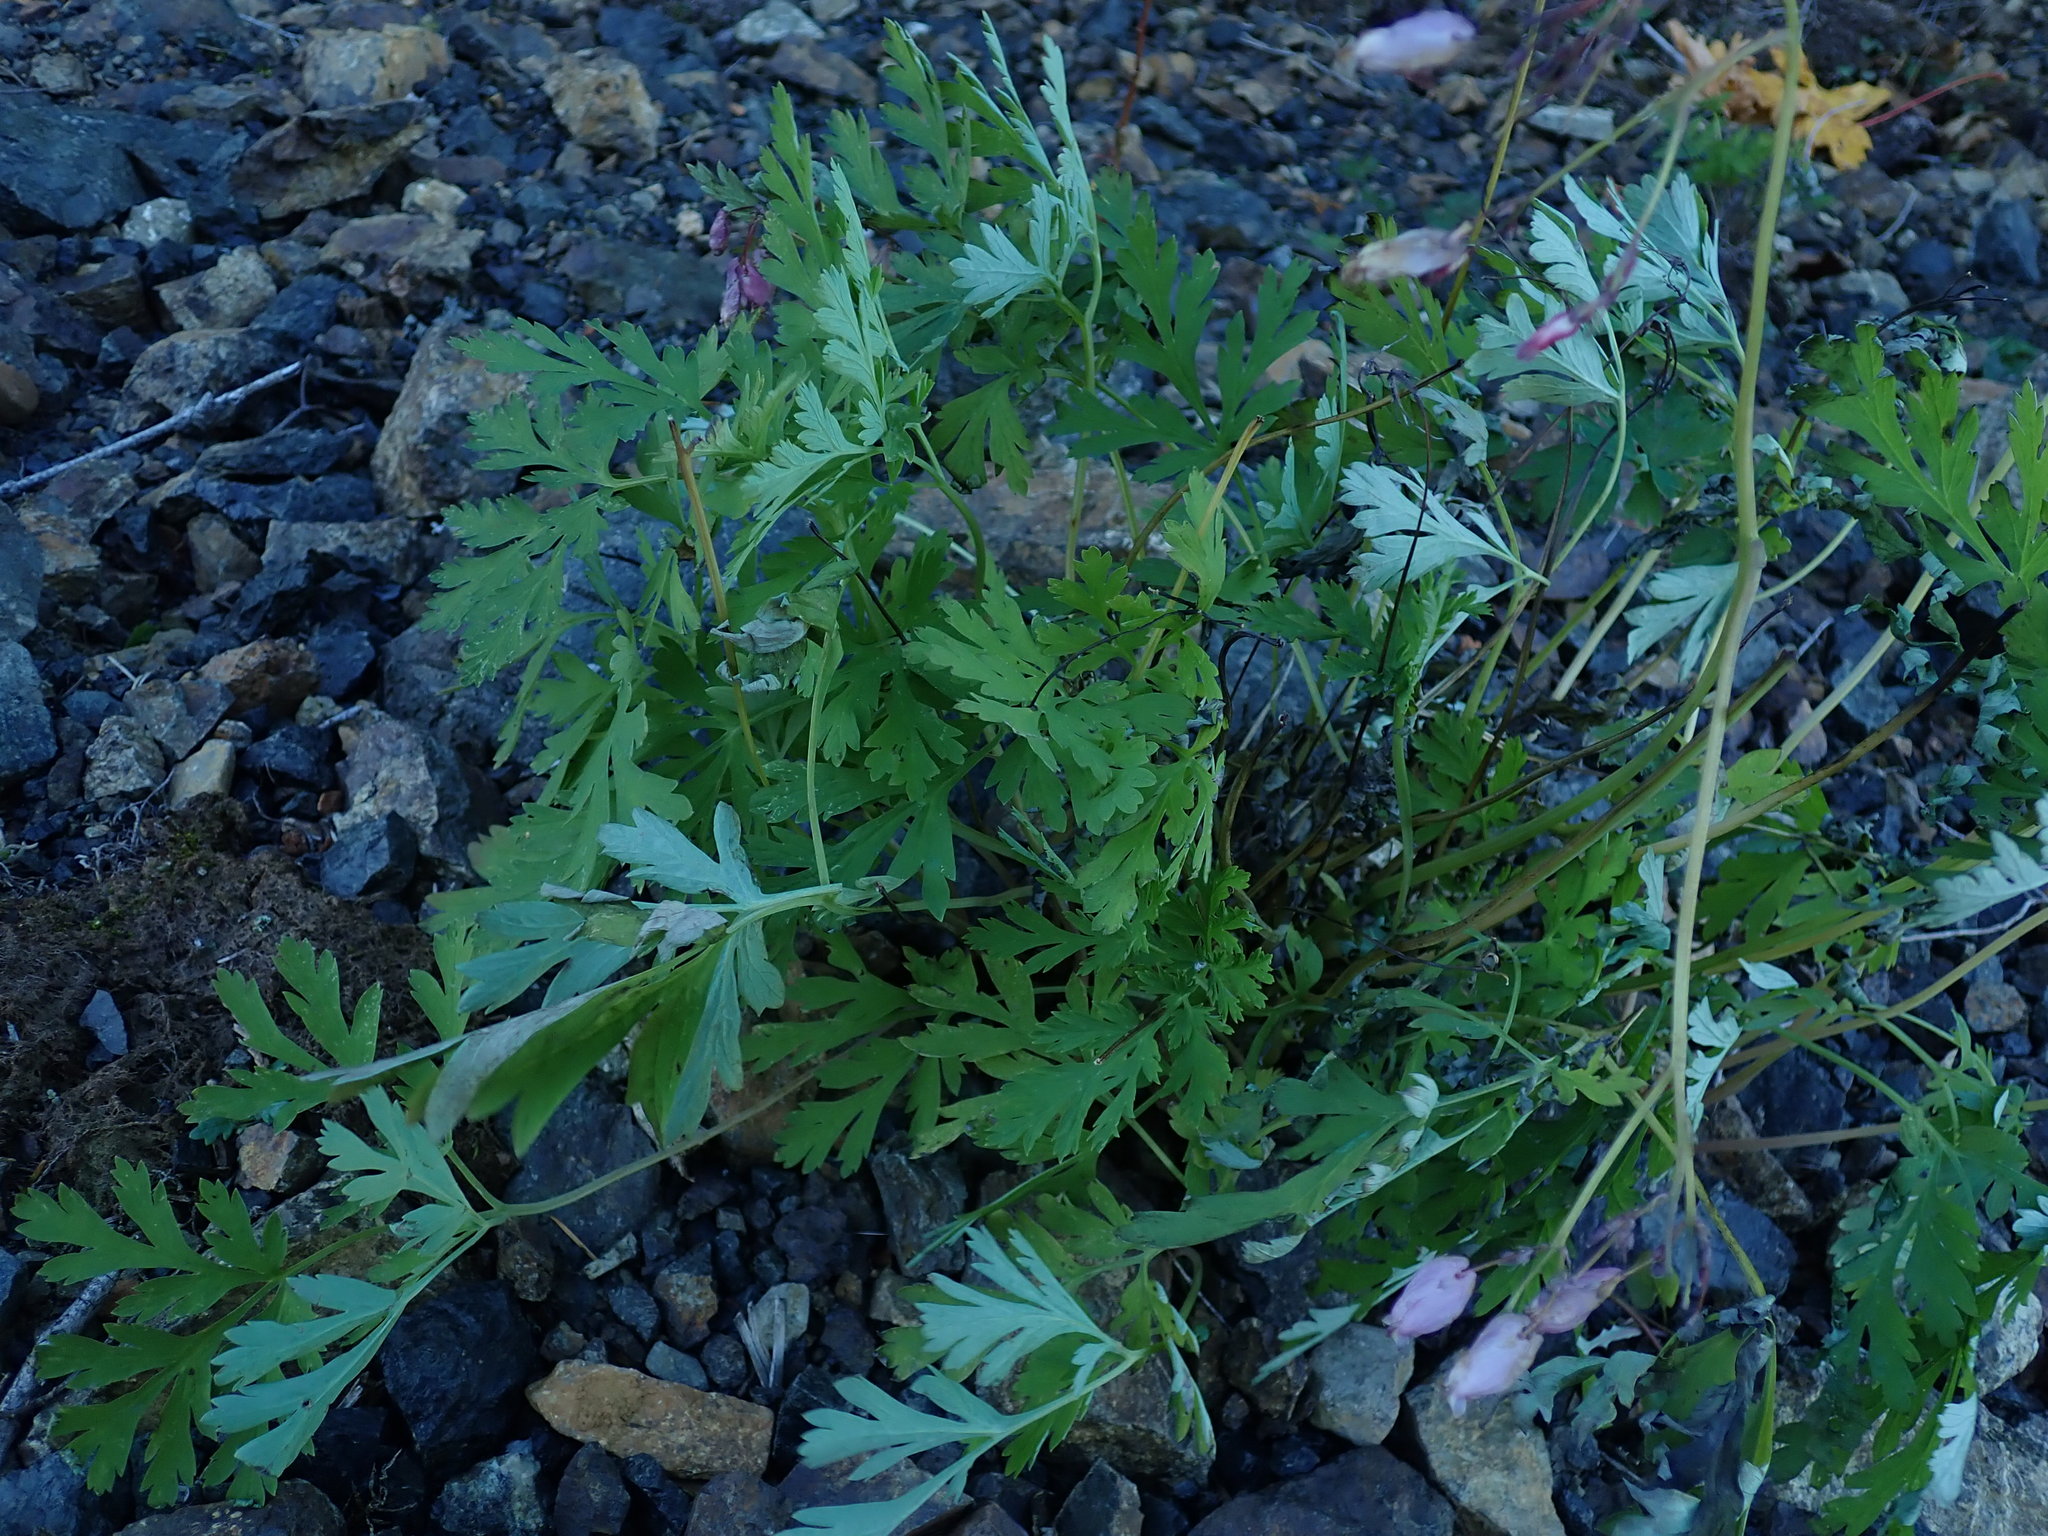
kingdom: Plantae
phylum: Tracheophyta
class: Magnoliopsida
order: Ranunculales
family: Papaveraceae
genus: Dicentra
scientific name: Dicentra formosa
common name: Bleeding-heart
